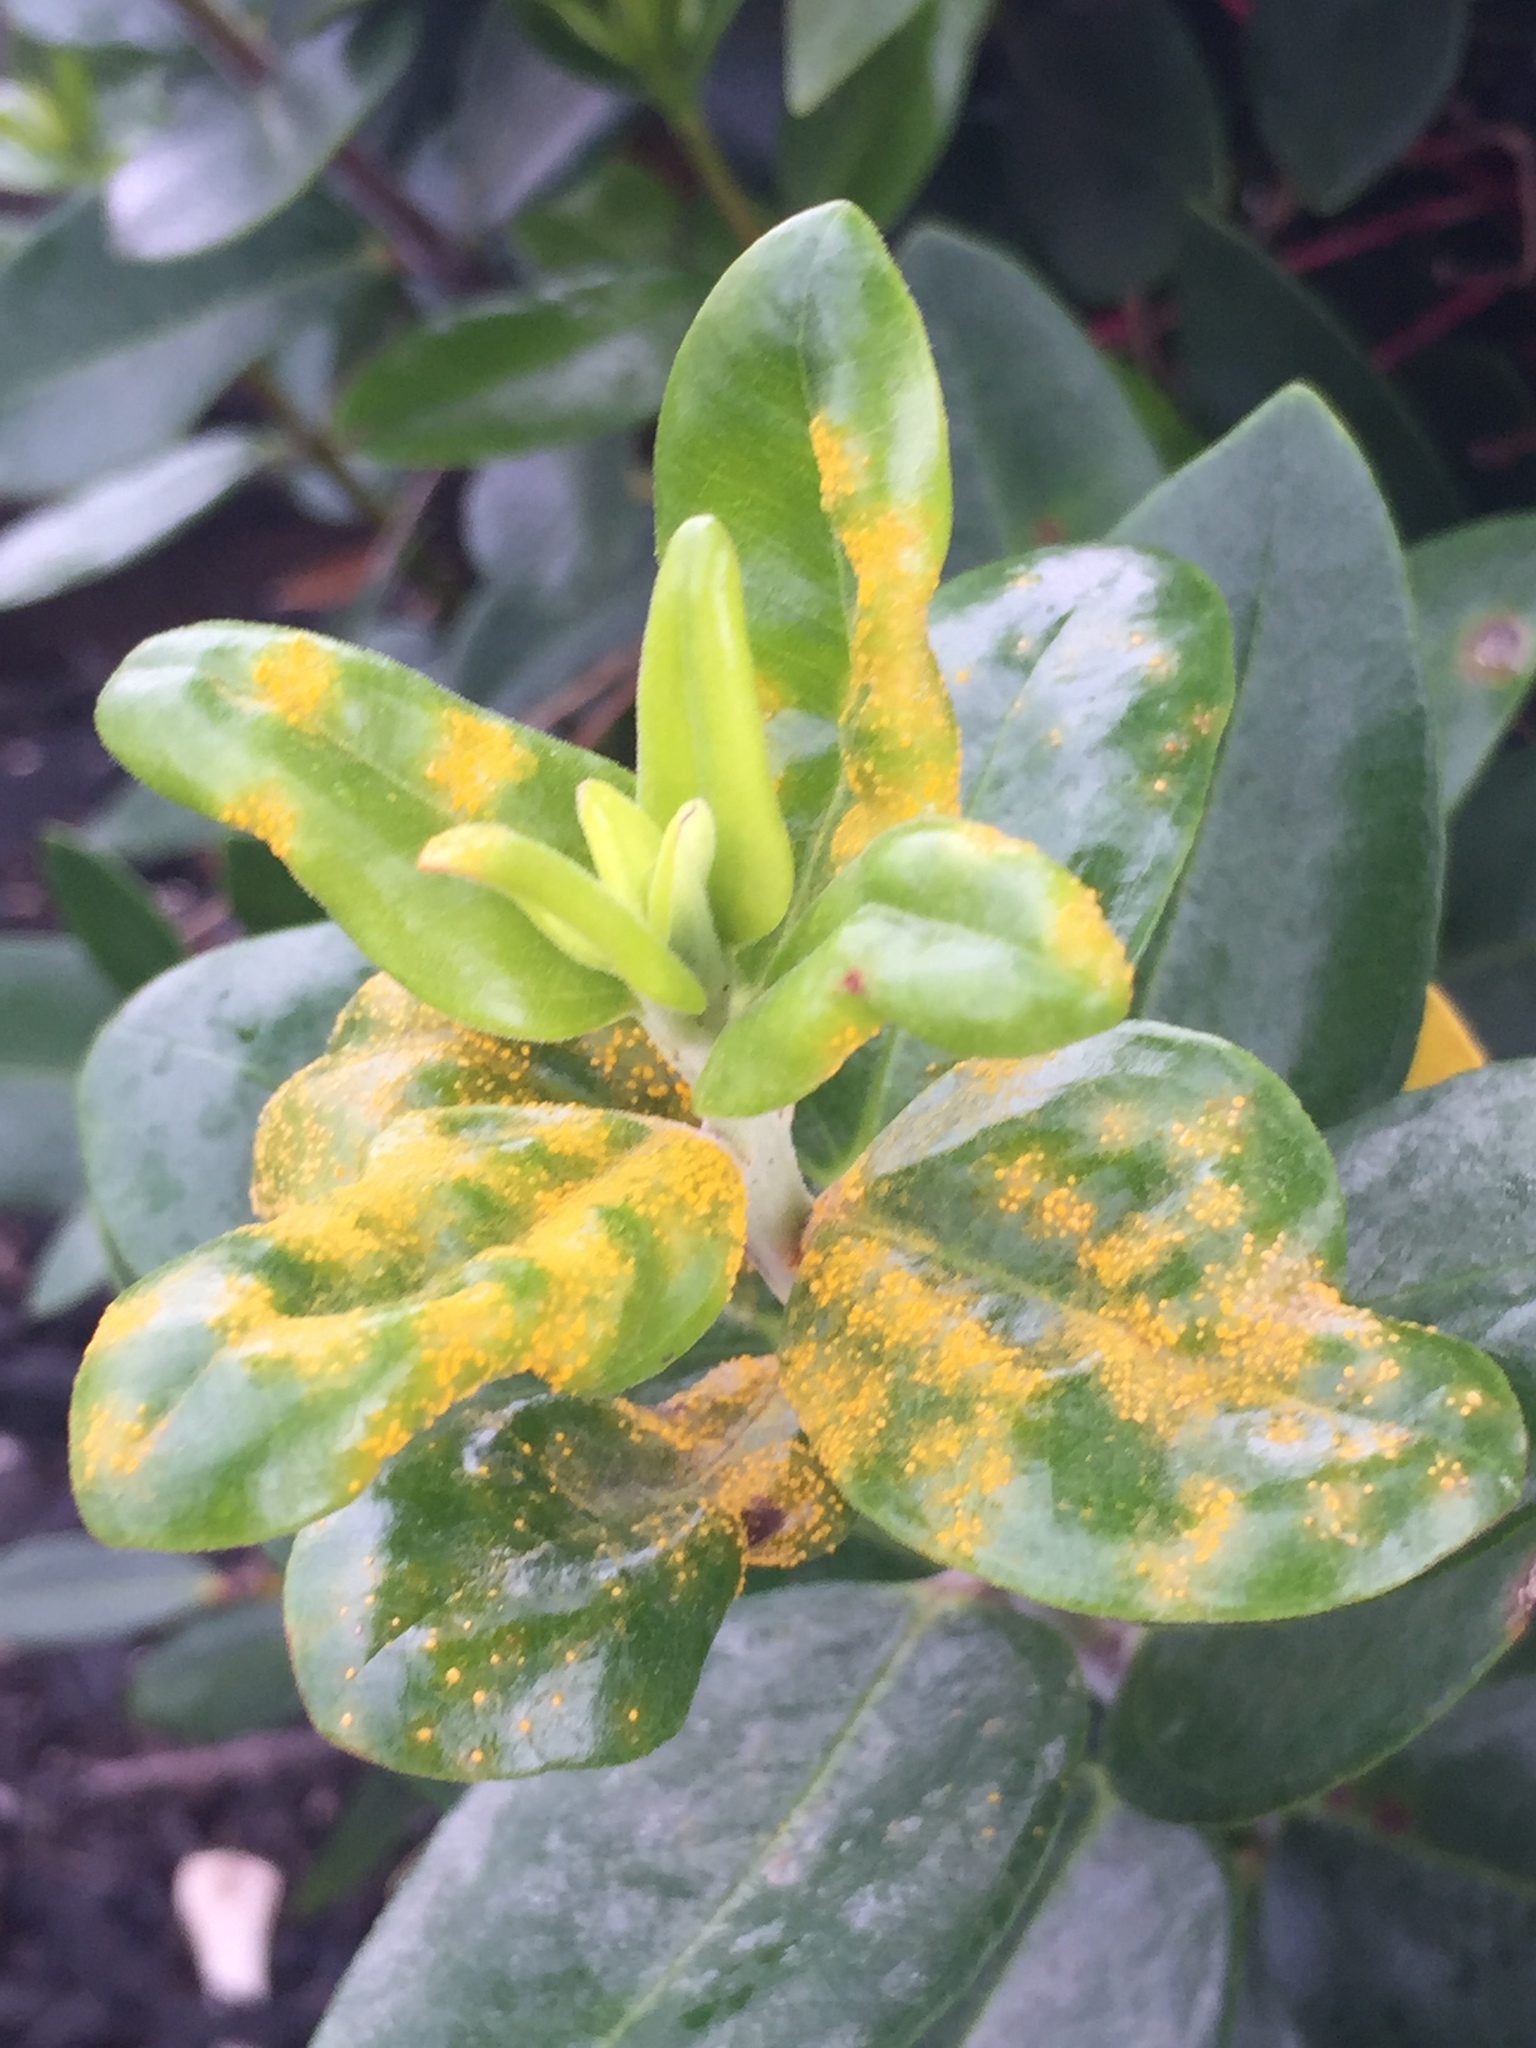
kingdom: Fungi
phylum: Basidiomycota
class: Pucciniomycetes
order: Pucciniales
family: Sphaerophragmiaceae
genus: Austropuccinia
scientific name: Austropuccinia psidii
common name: Myrtle rust
